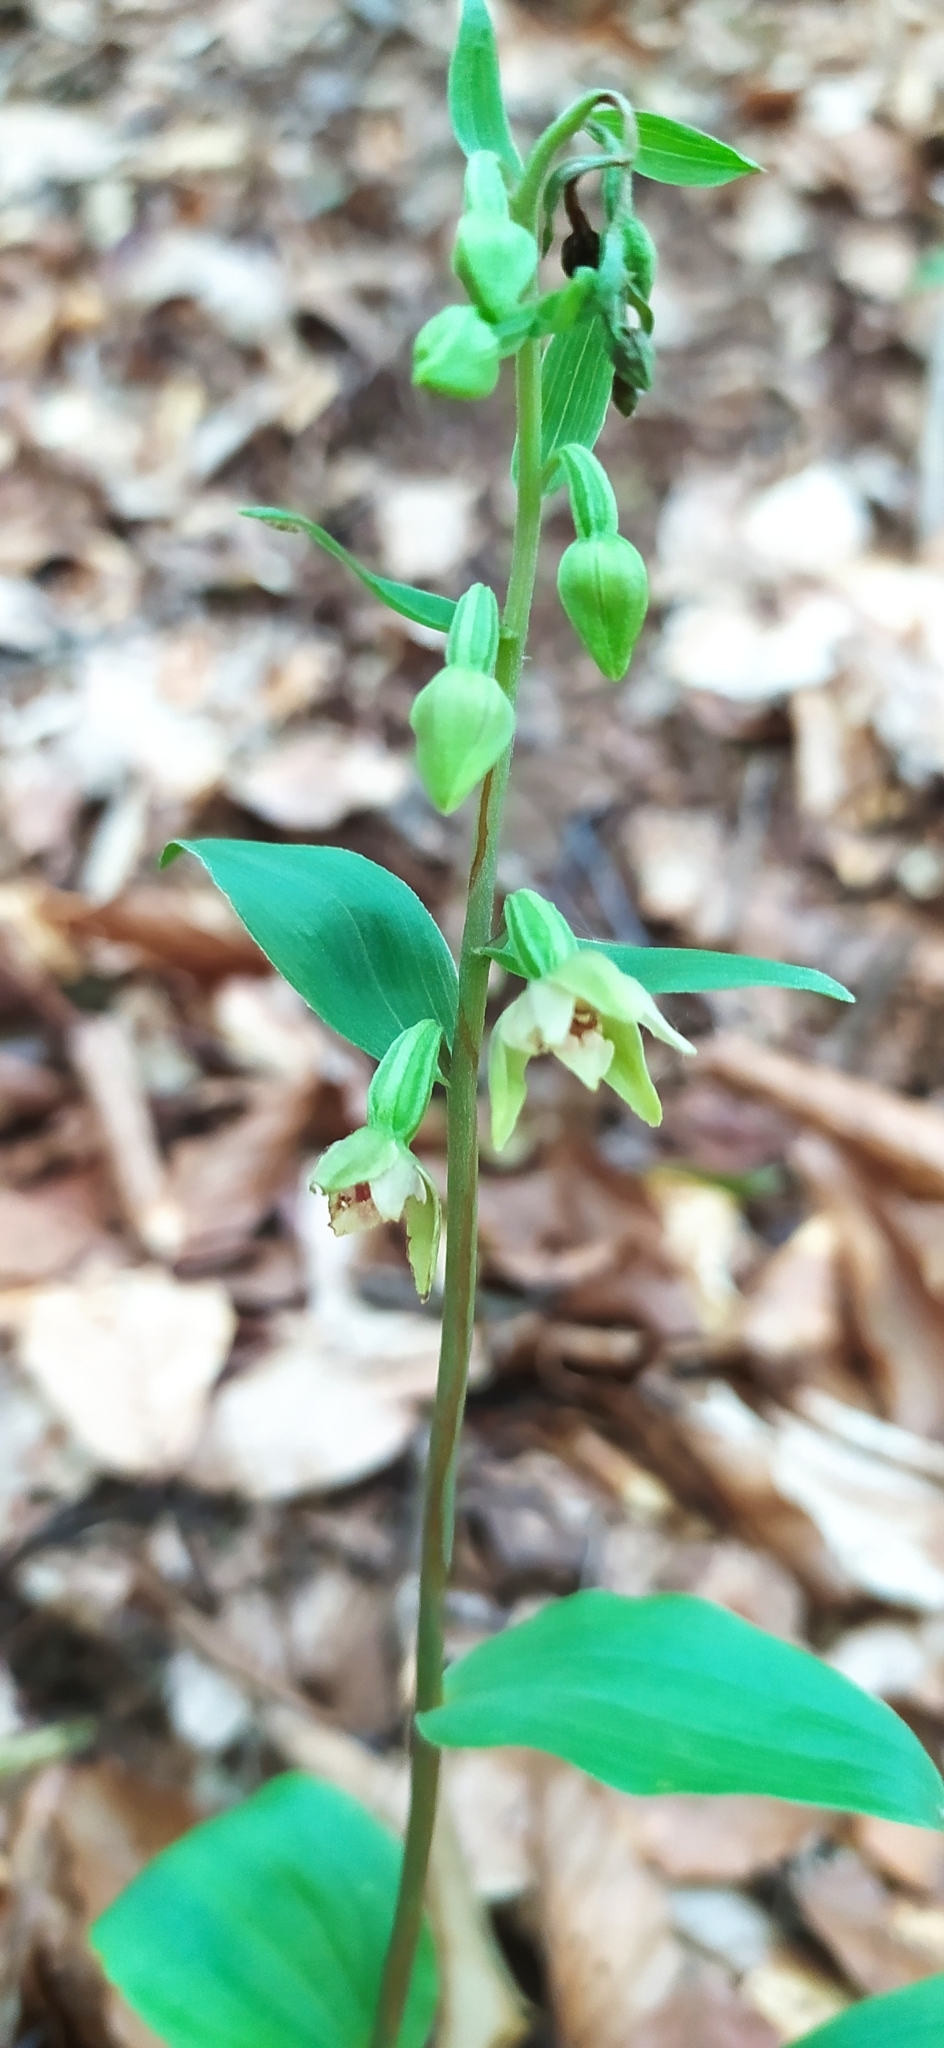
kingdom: Plantae
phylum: Tracheophyta
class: Liliopsida
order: Asparagales
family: Orchidaceae
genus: Epipactis
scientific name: Epipactis persica
